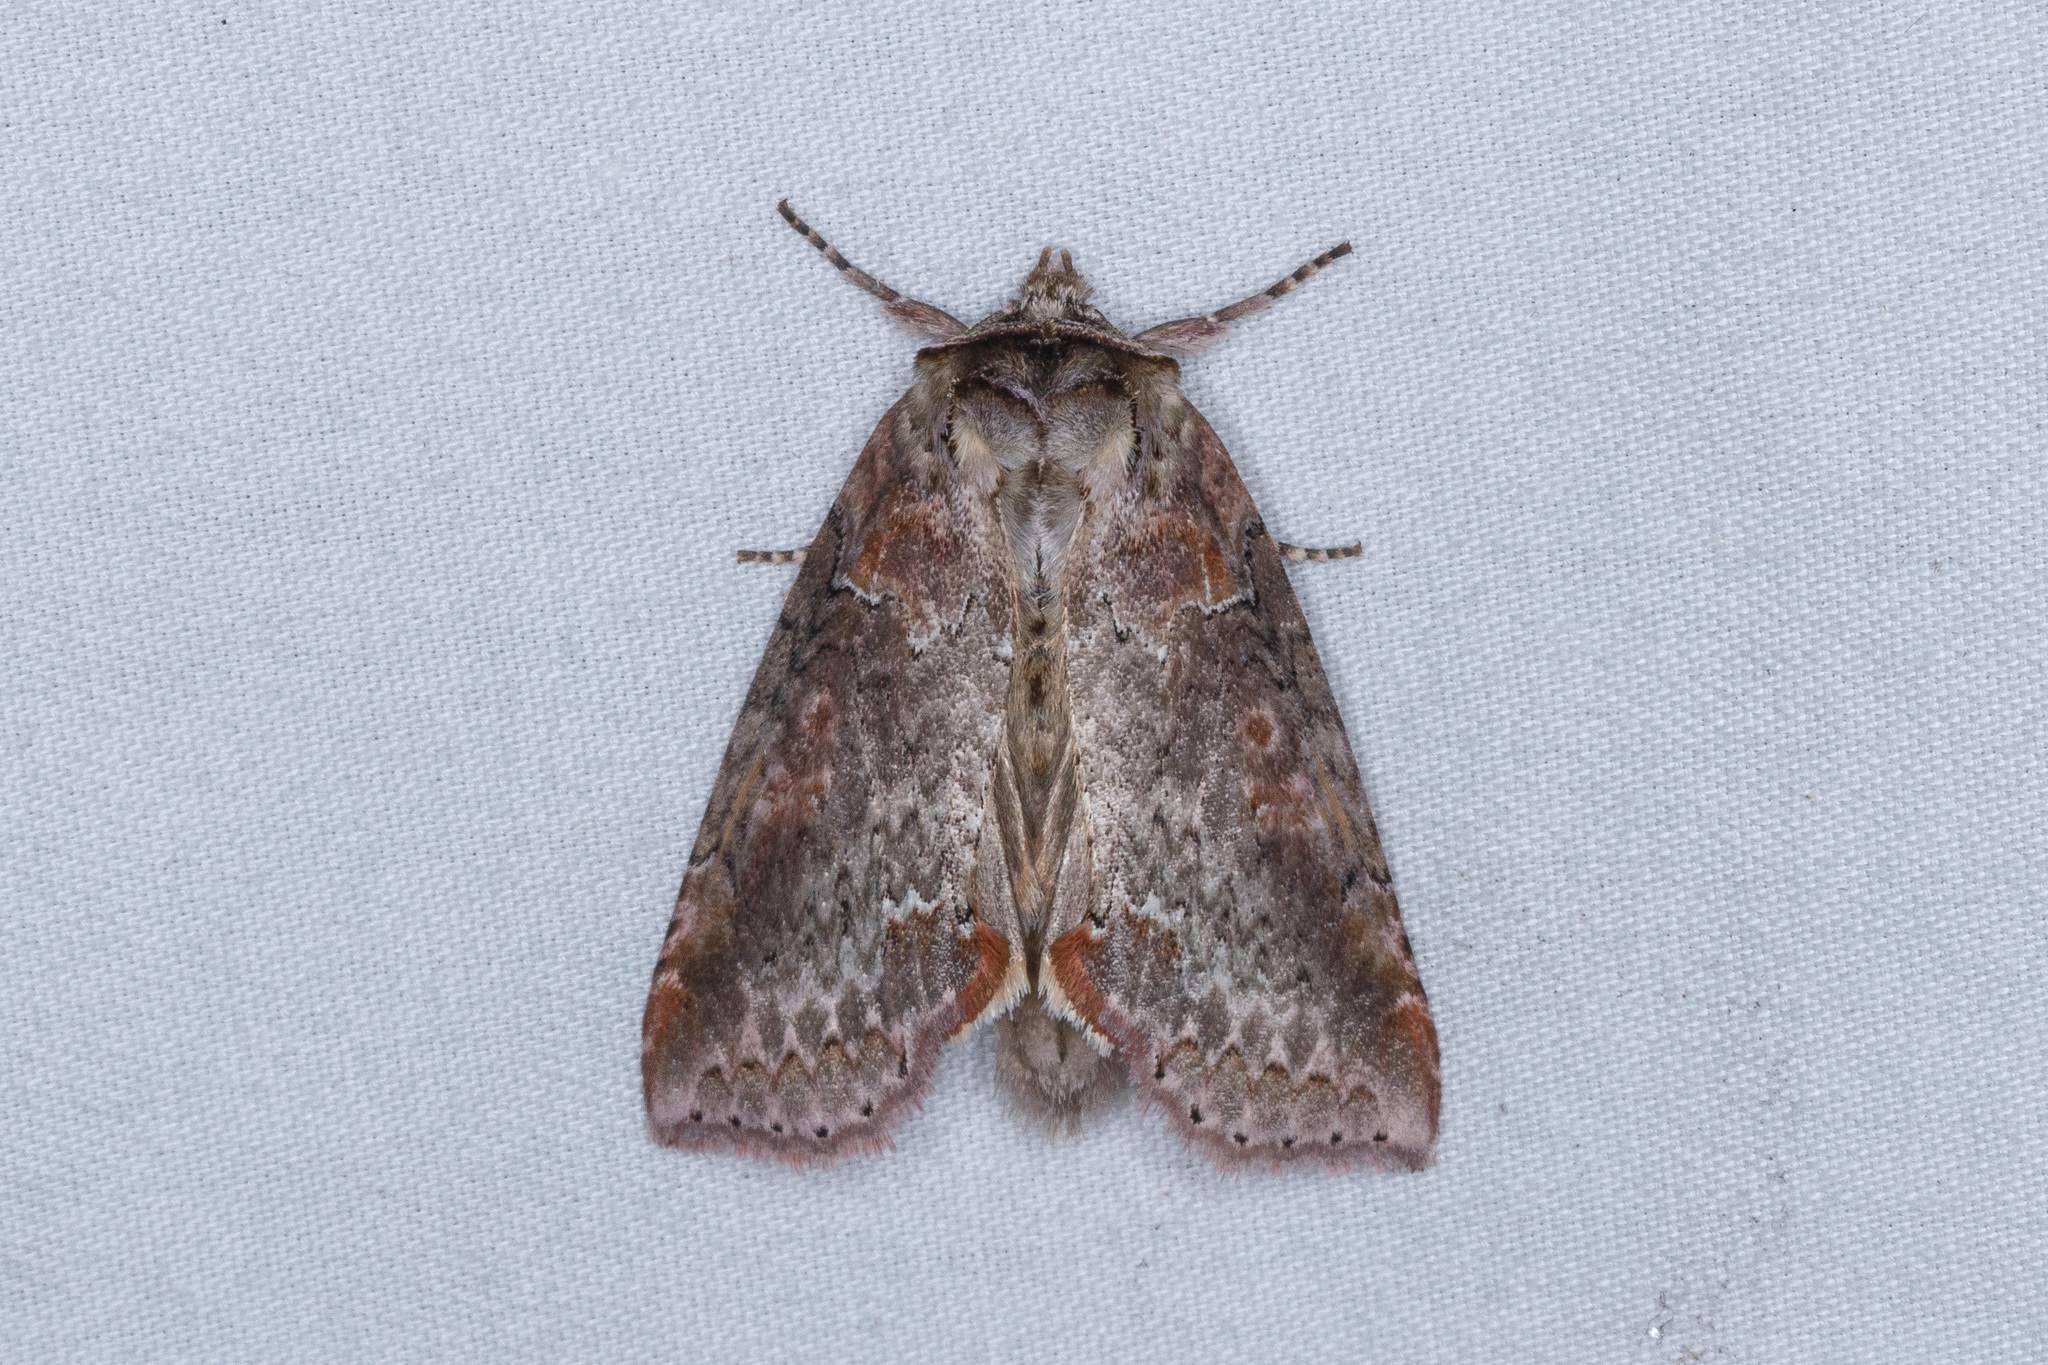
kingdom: Animalia
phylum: Arthropoda
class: Insecta
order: Lepidoptera
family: Drepanidae
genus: Pseudothyatira
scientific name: Pseudothyatira cymatophoroides
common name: Tufted thyatirid moth
